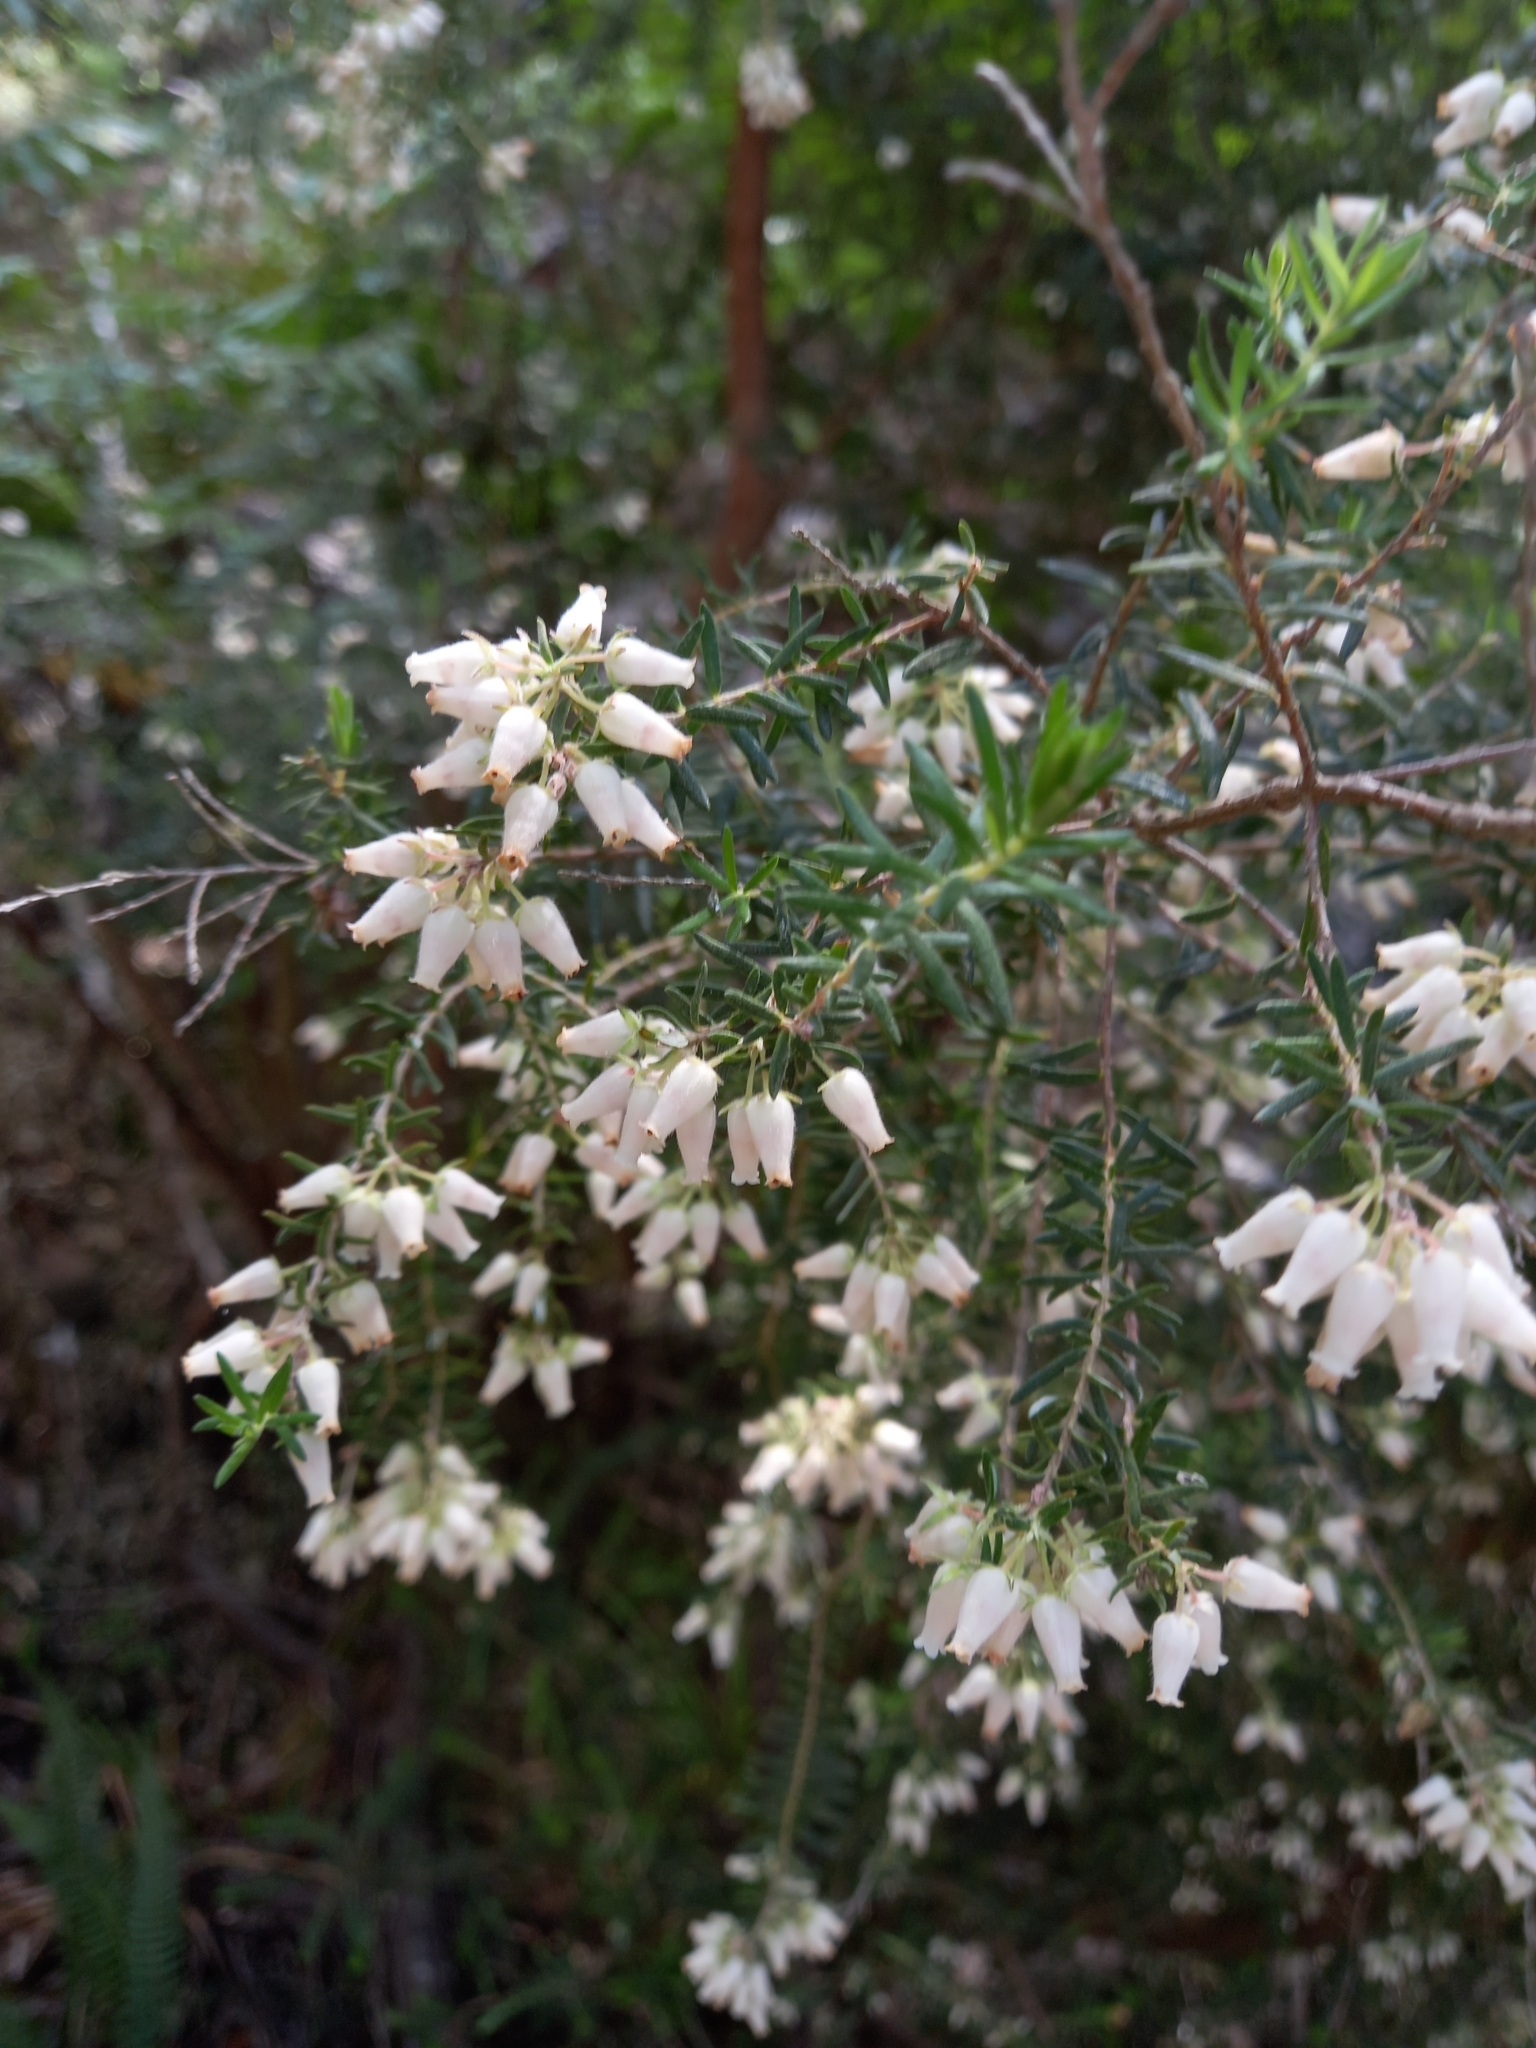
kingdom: Plantae
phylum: Tracheophyta
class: Magnoliopsida
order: Ericales
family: Ericaceae
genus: Erica
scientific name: Erica caffra
